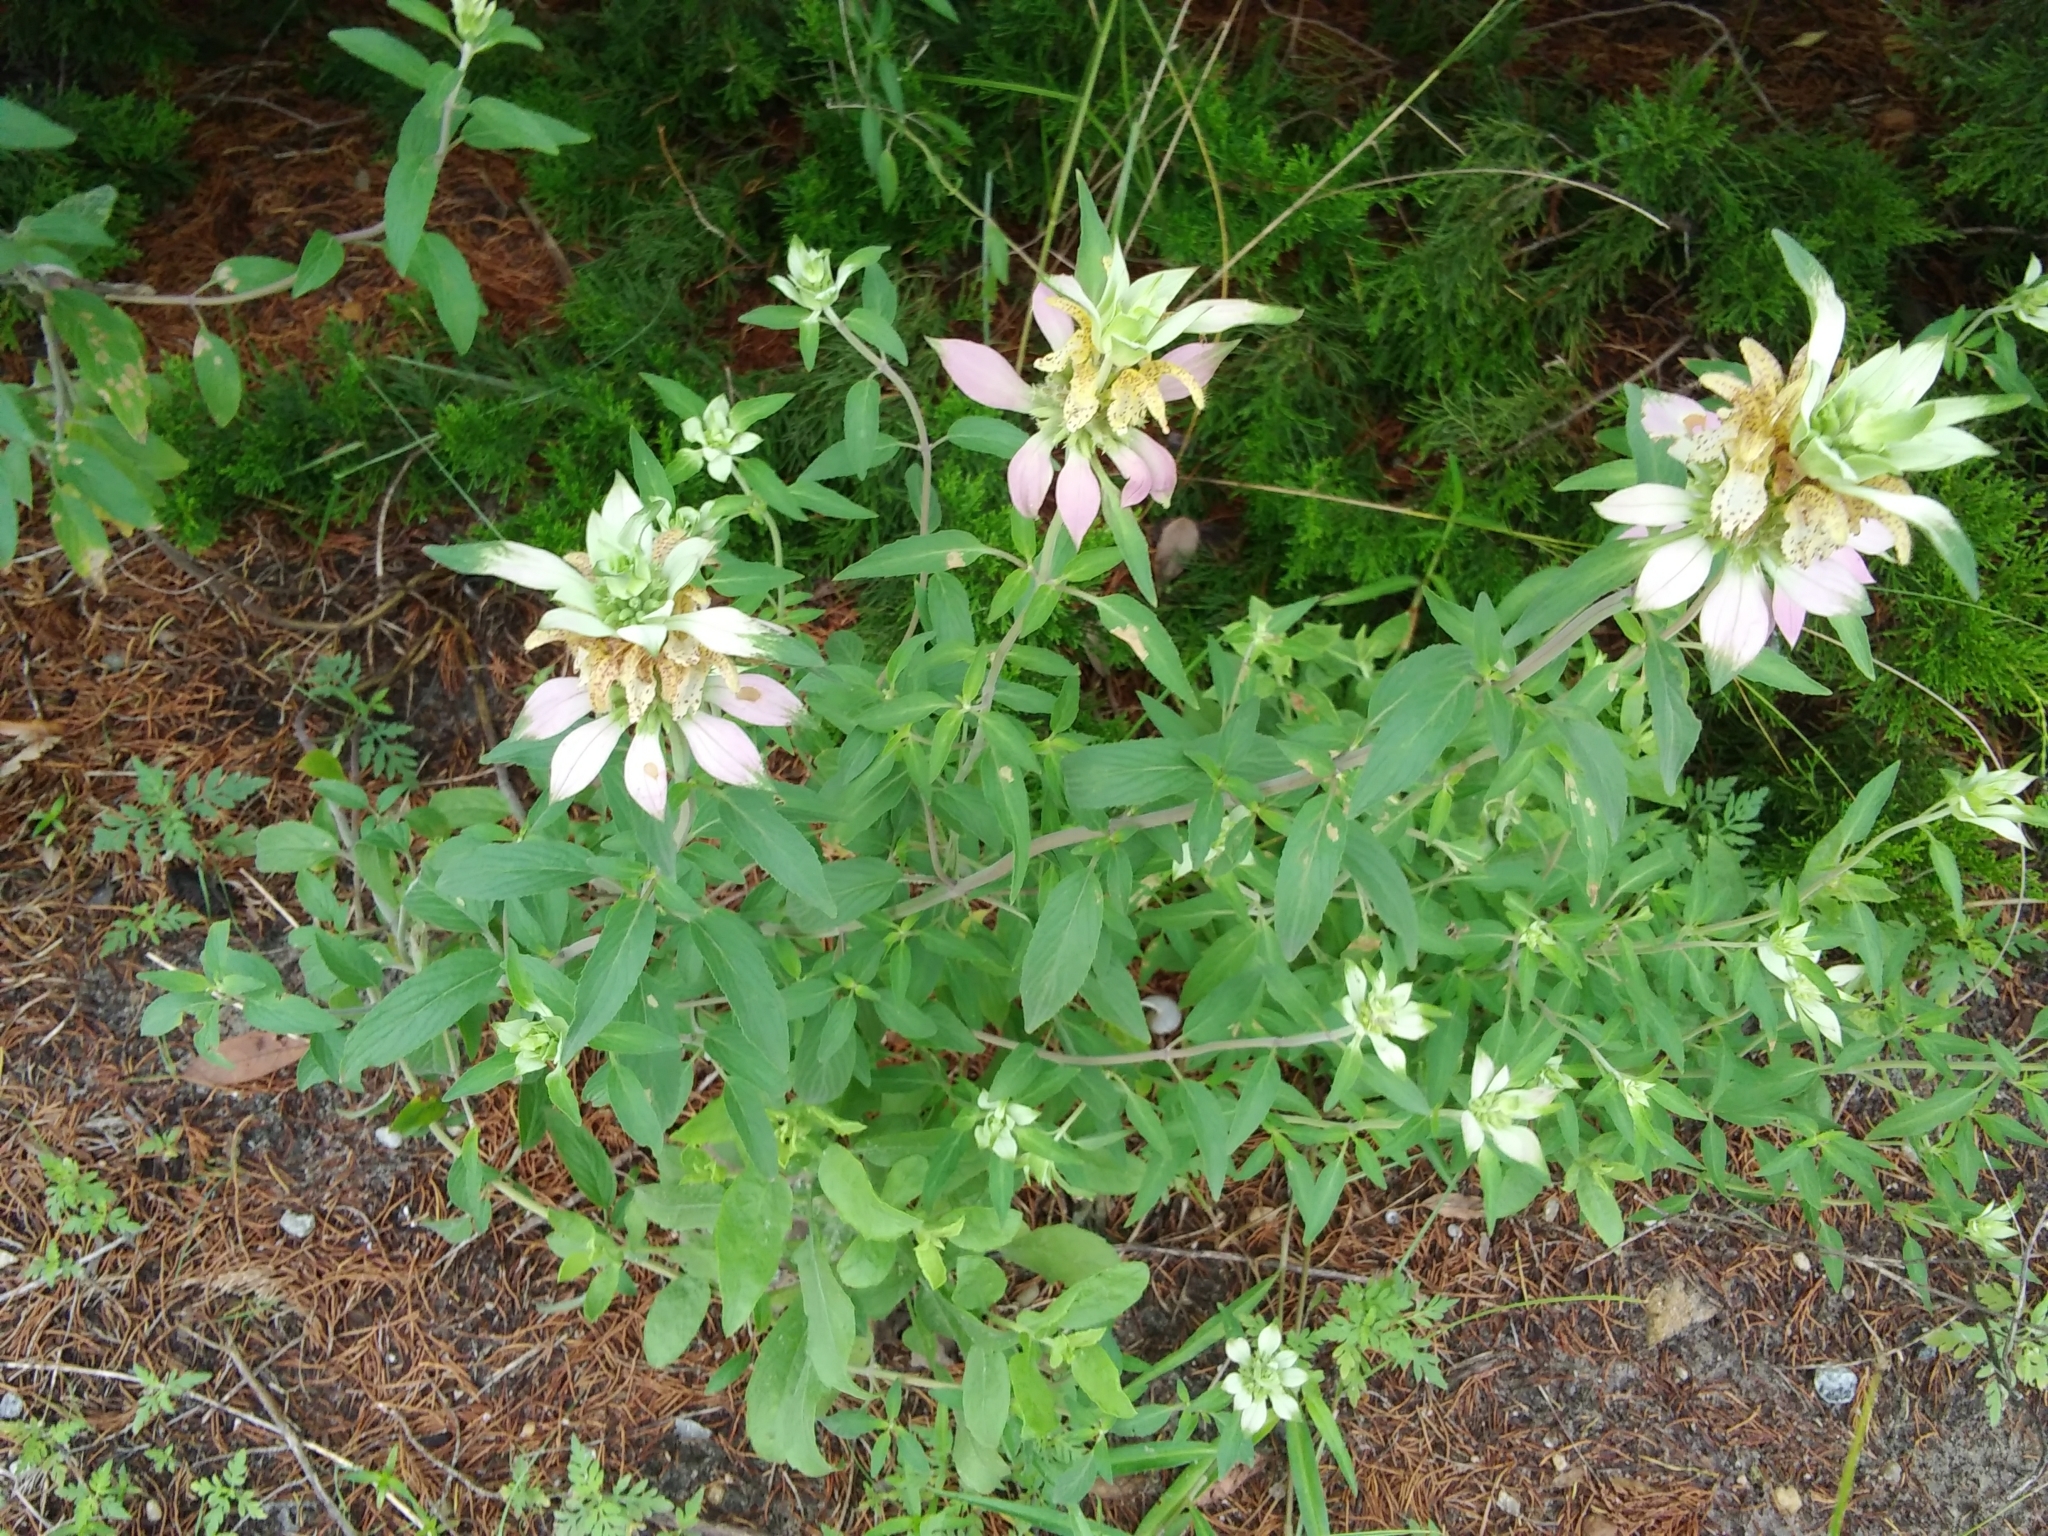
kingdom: Plantae
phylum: Tracheophyta
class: Magnoliopsida
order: Lamiales
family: Lamiaceae
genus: Monarda
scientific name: Monarda punctata
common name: Dotted monarda
